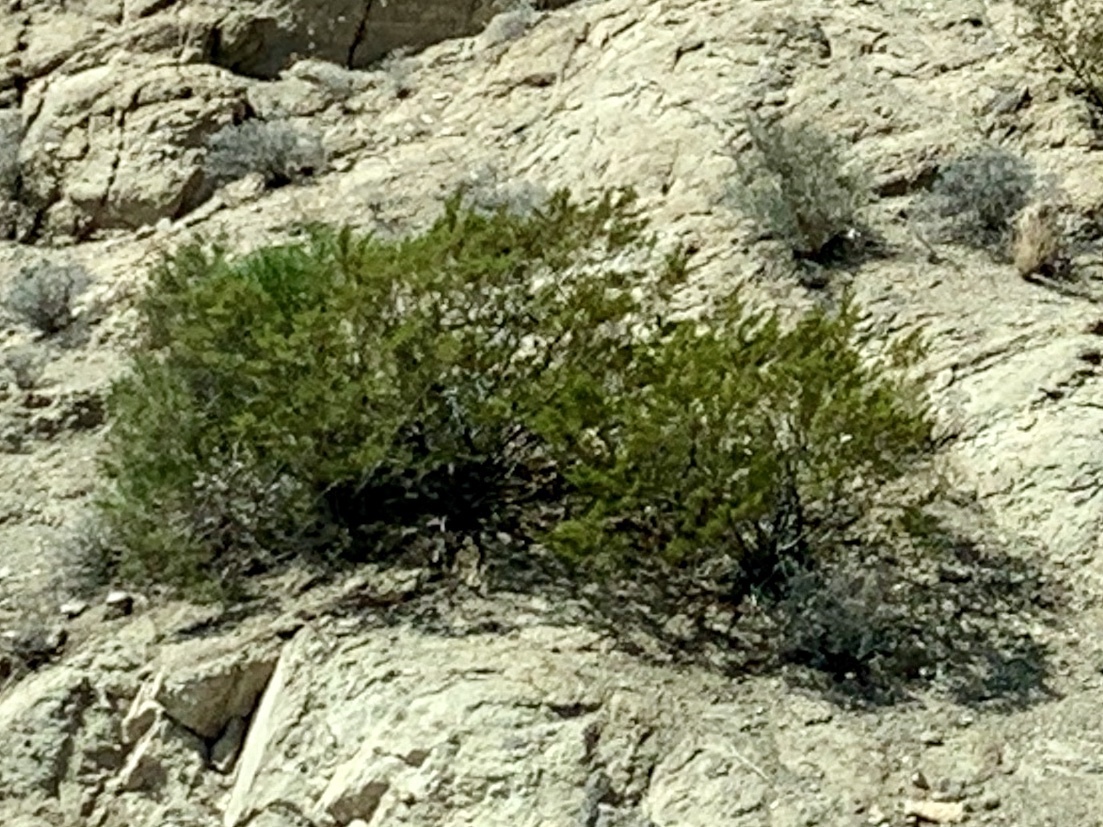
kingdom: Plantae
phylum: Tracheophyta
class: Magnoliopsida
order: Zygophyllales
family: Zygophyllaceae
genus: Larrea
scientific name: Larrea tridentata
